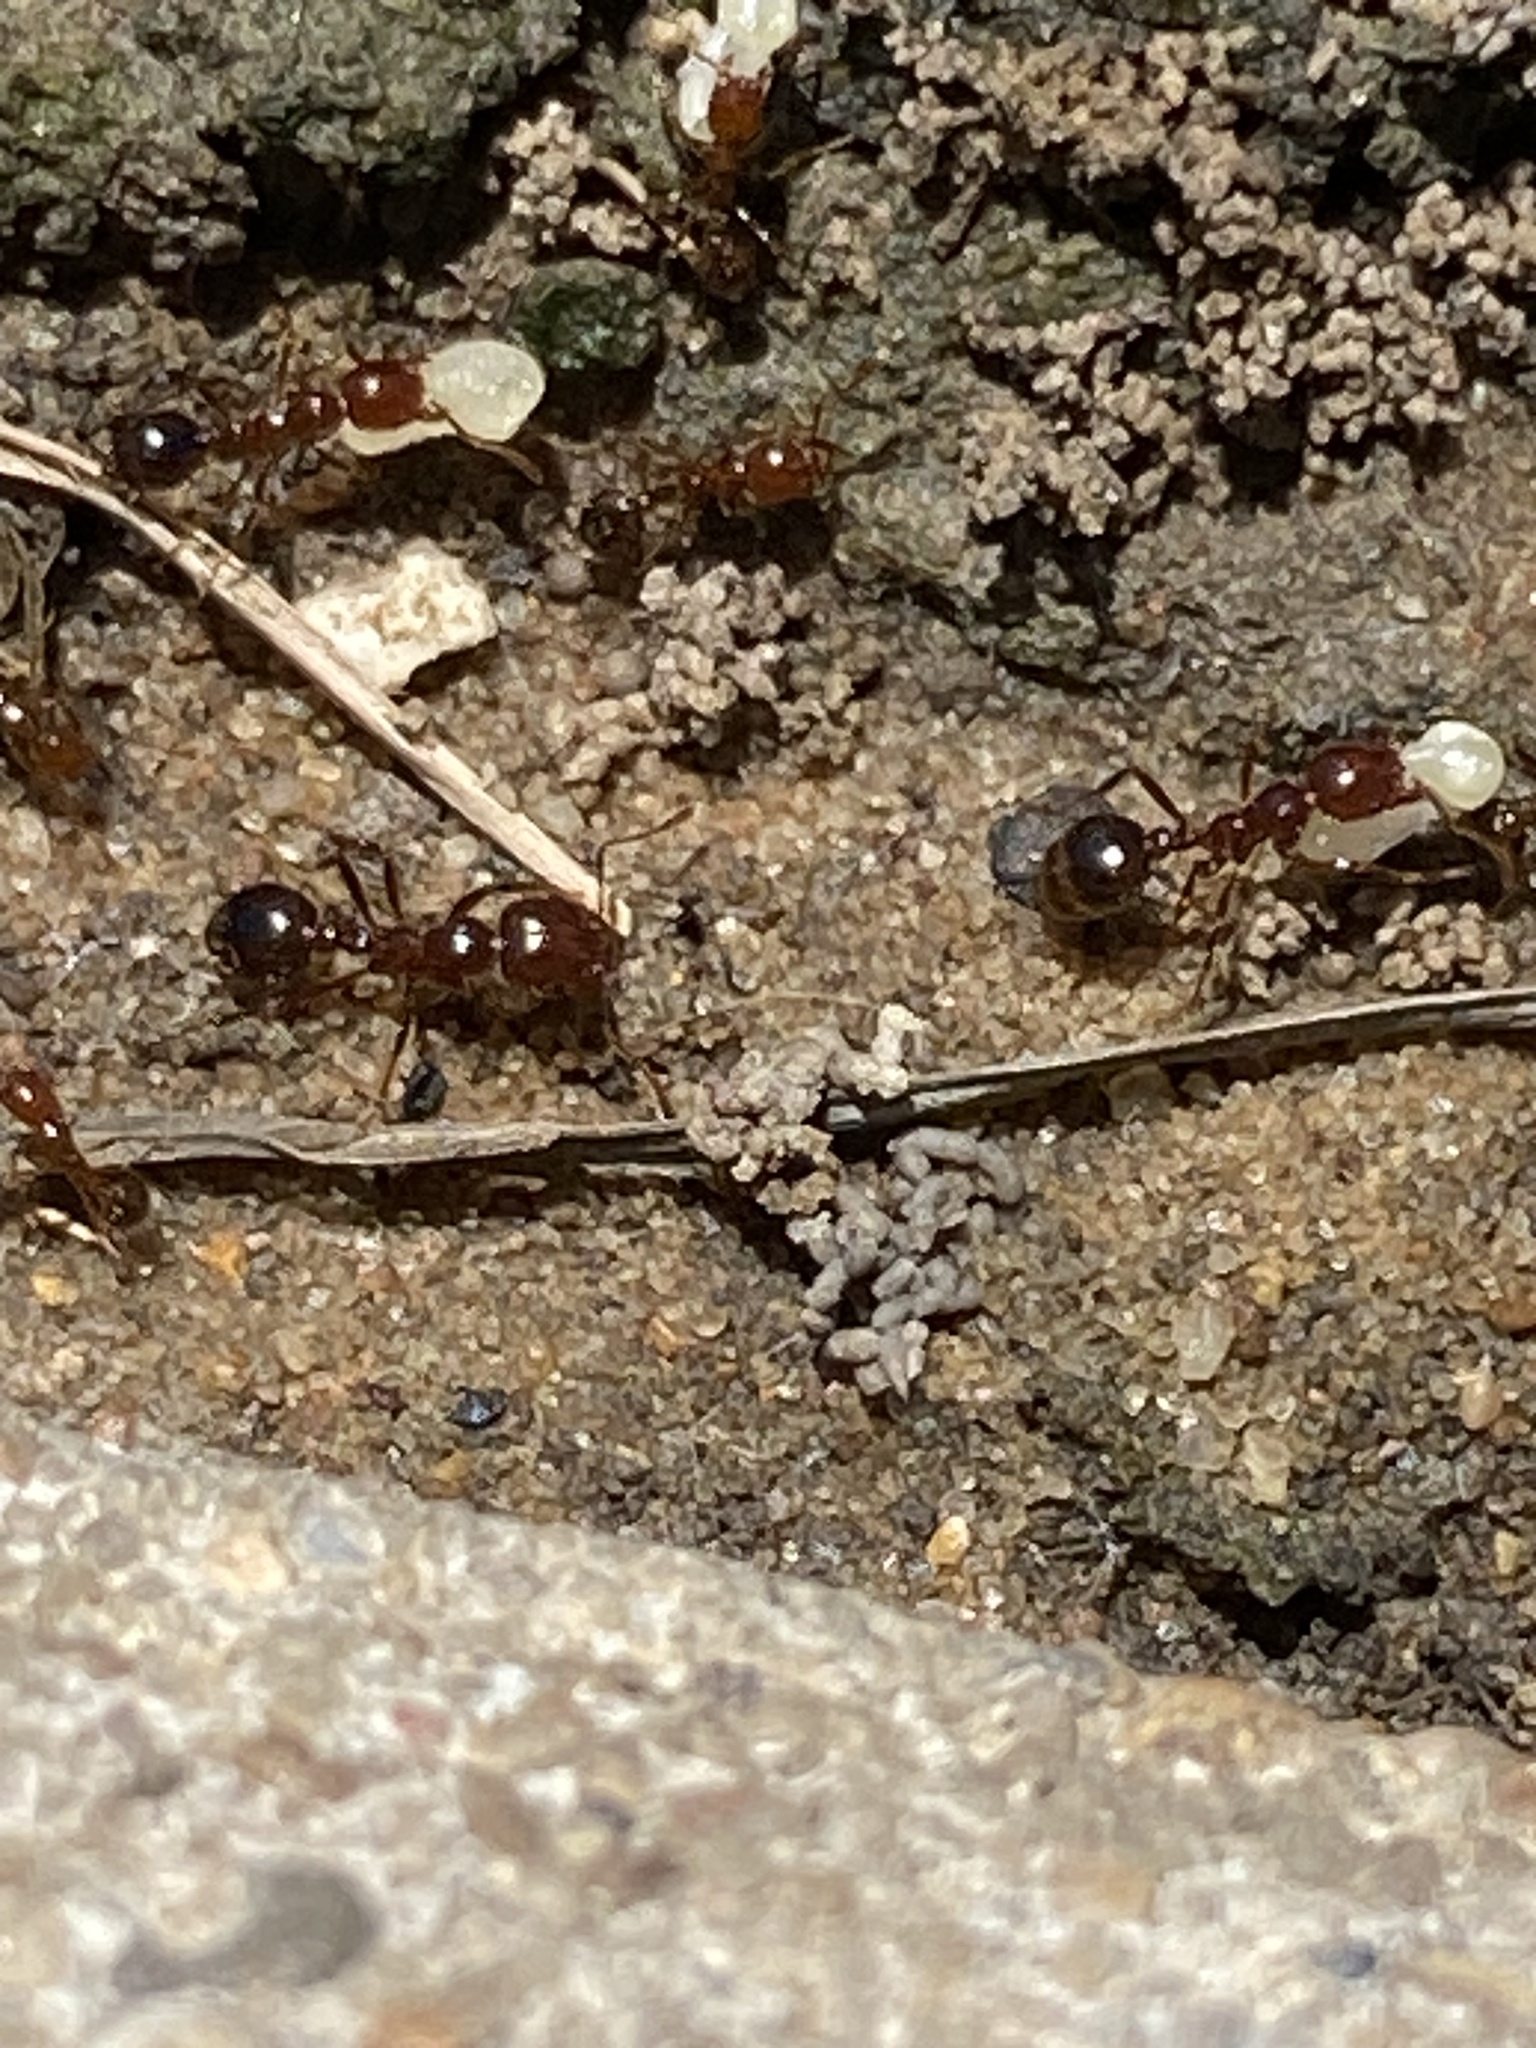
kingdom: Animalia
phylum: Arthropoda
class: Insecta
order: Hymenoptera
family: Formicidae
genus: Solenopsis
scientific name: Solenopsis invicta
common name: Red imported fire ant
